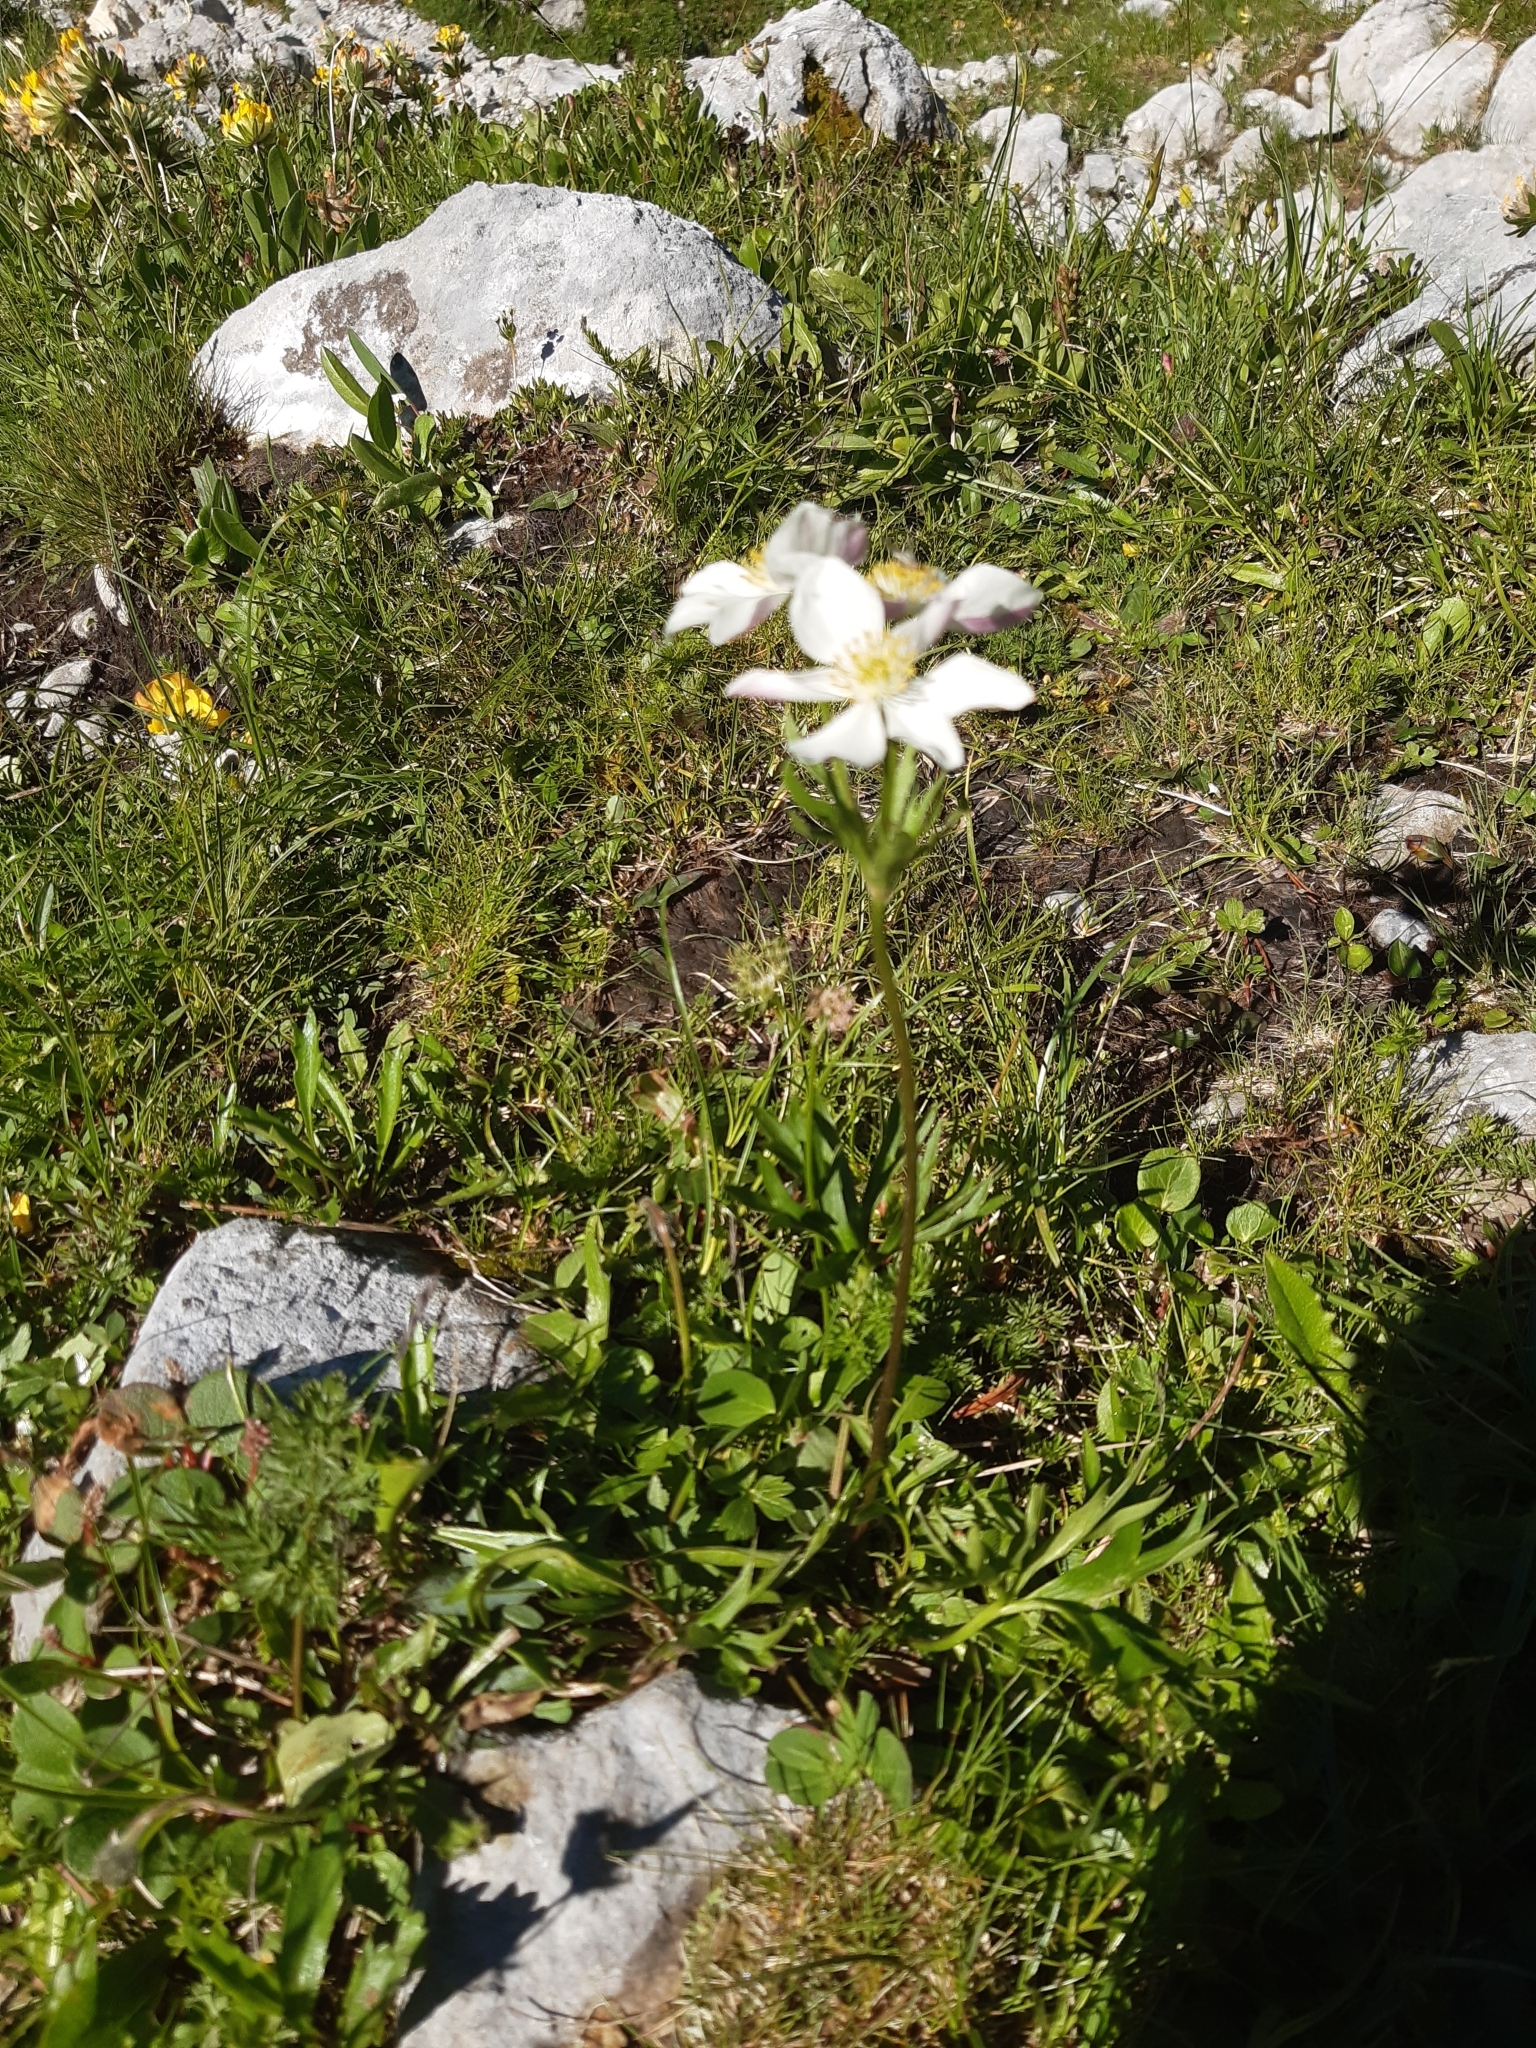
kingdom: Plantae
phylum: Tracheophyta
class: Magnoliopsida
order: Ranunculales
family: Ranunculaceae
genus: Anemonastrum
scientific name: Anemonastrum narcissiflorum
